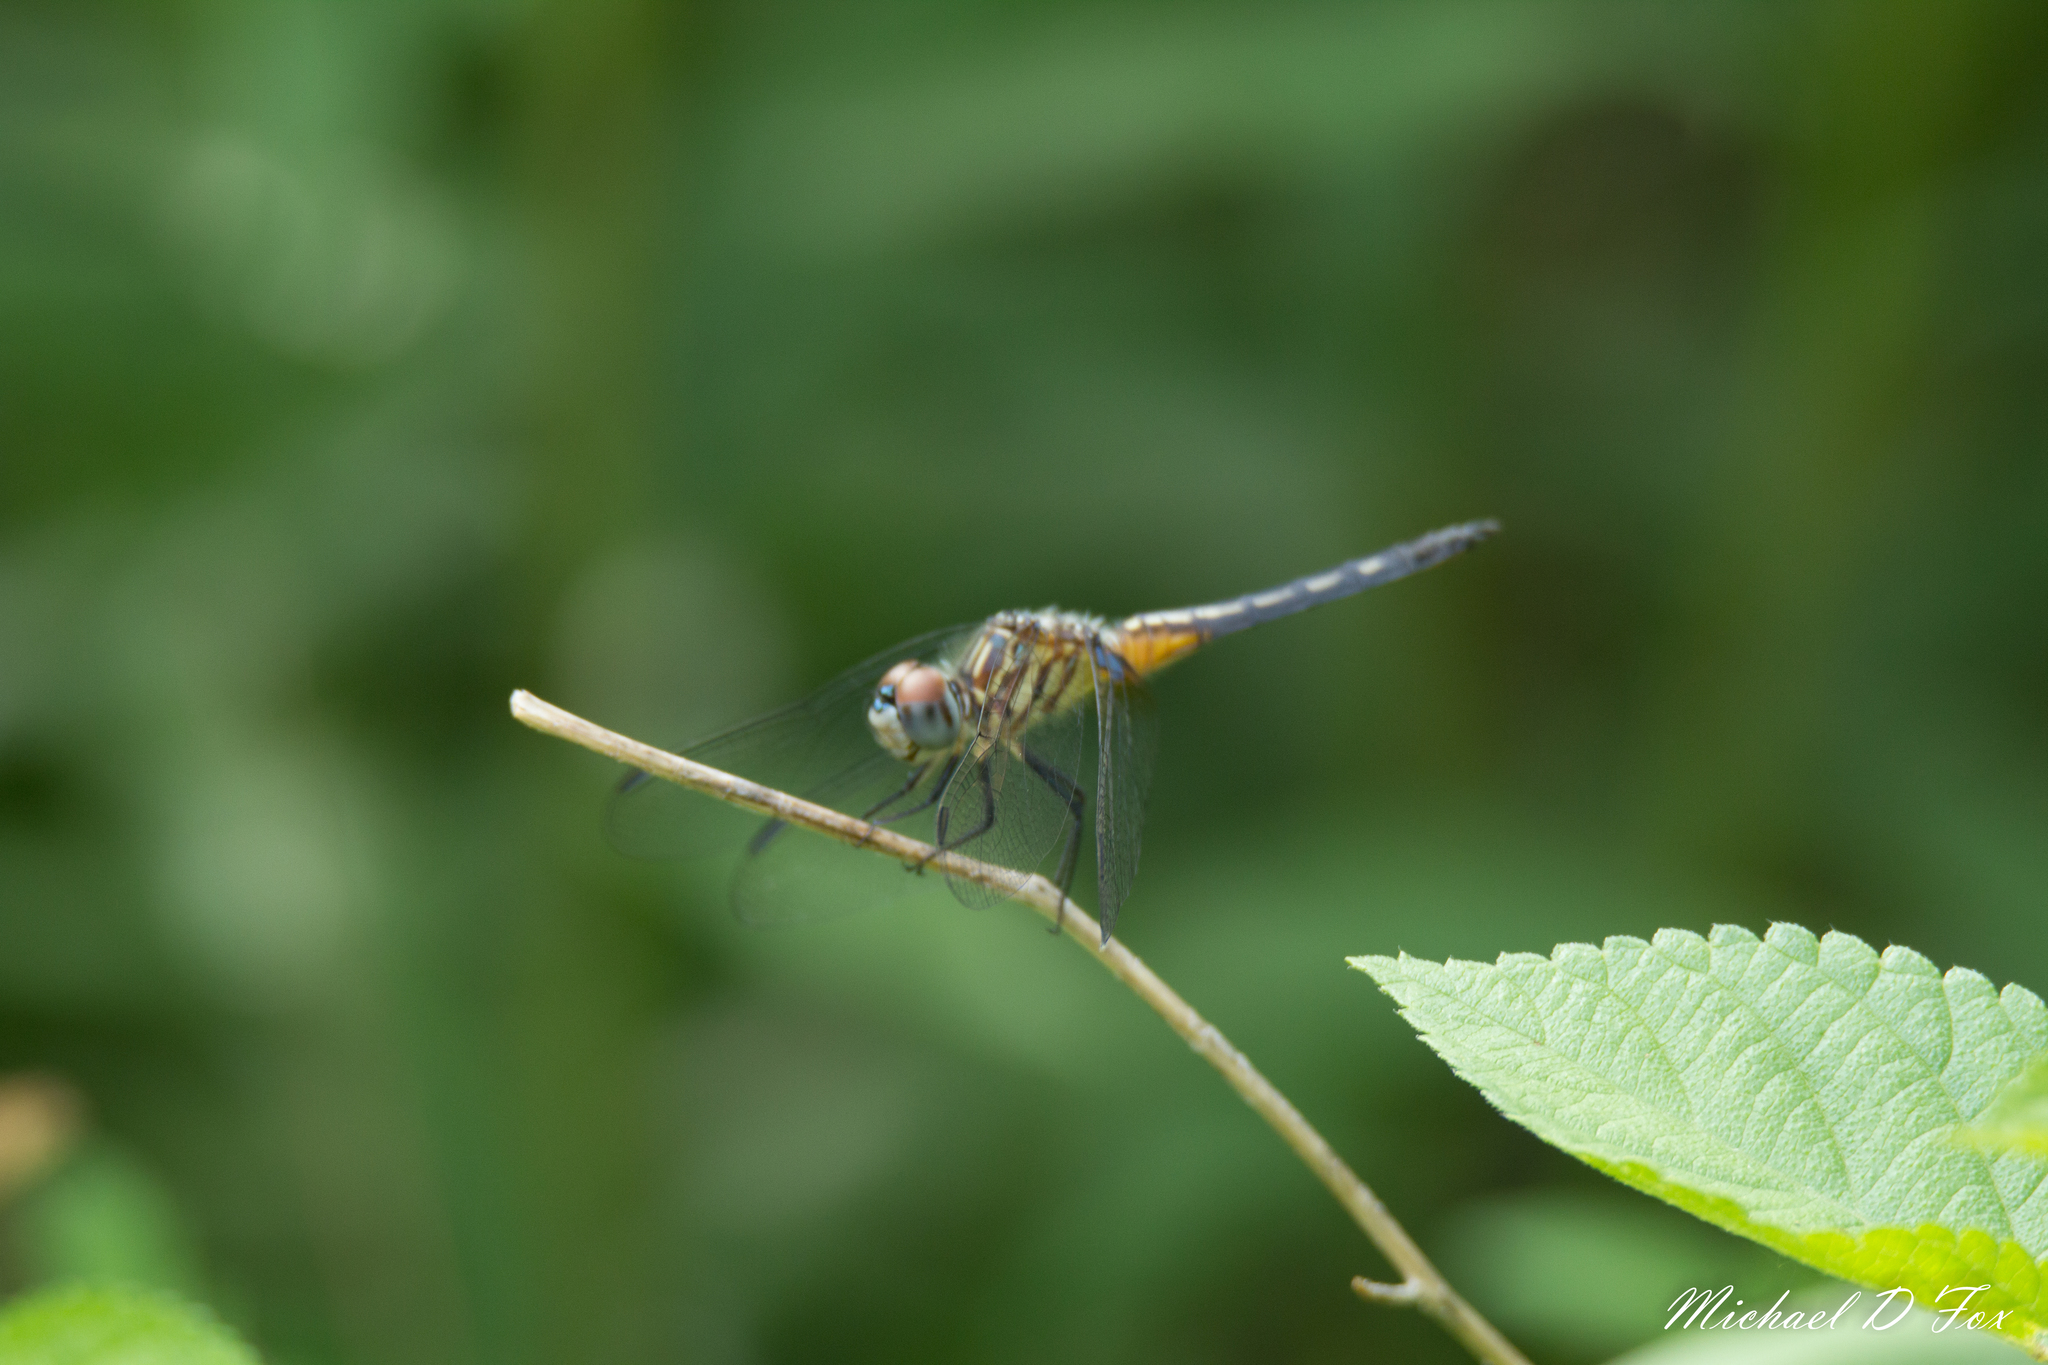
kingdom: Animalia
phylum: Arthropoda
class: Insecta
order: Odonata
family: Libellulidae
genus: Pachydiplax
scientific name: Pachydiplax longipennis
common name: Blue dasher
